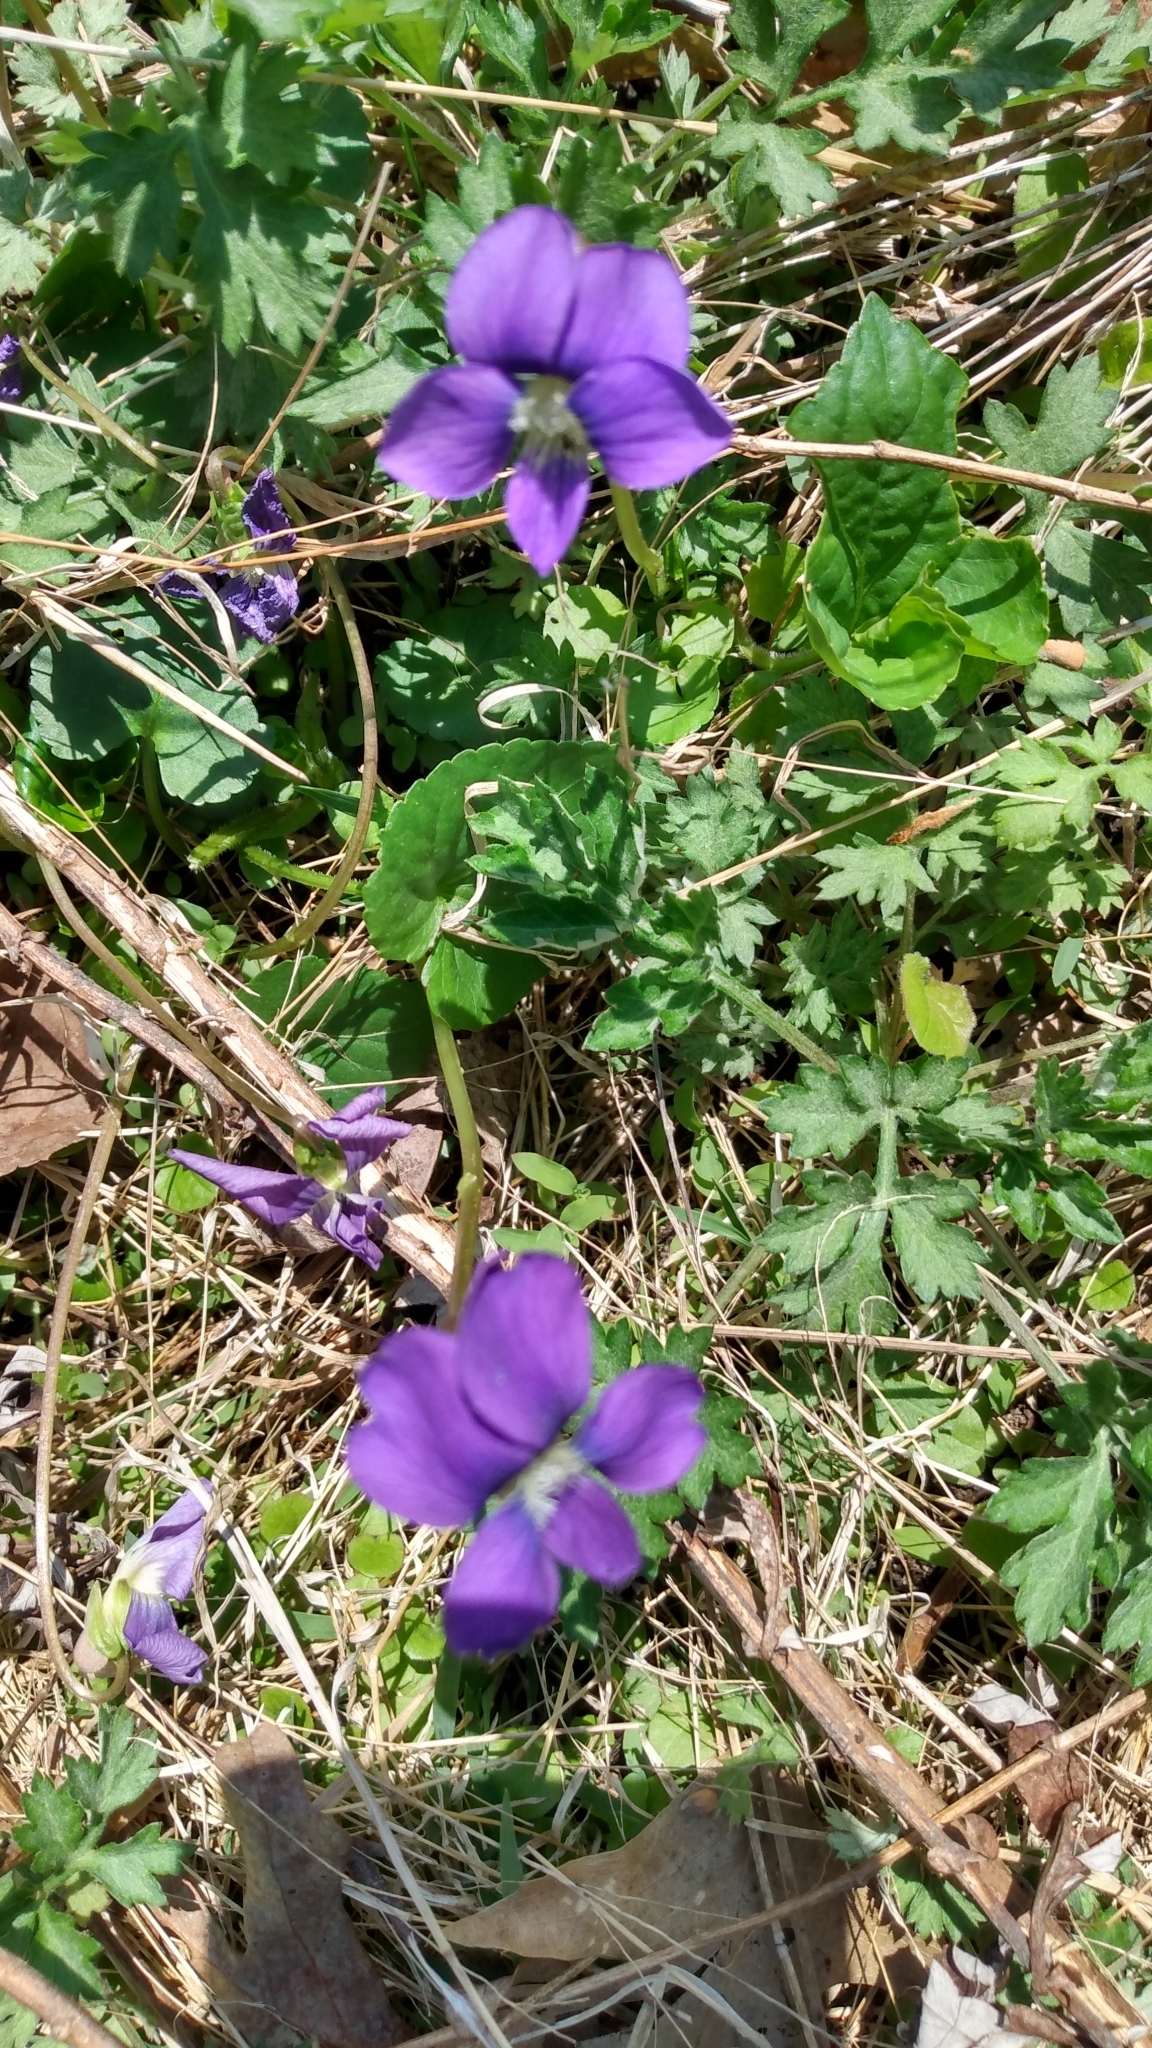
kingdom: Plantae
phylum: Tracheophyta
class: Magnoliopsida
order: Malpighiales
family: Violaceae
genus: Viola
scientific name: Viola sororia
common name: Dooryard violet
